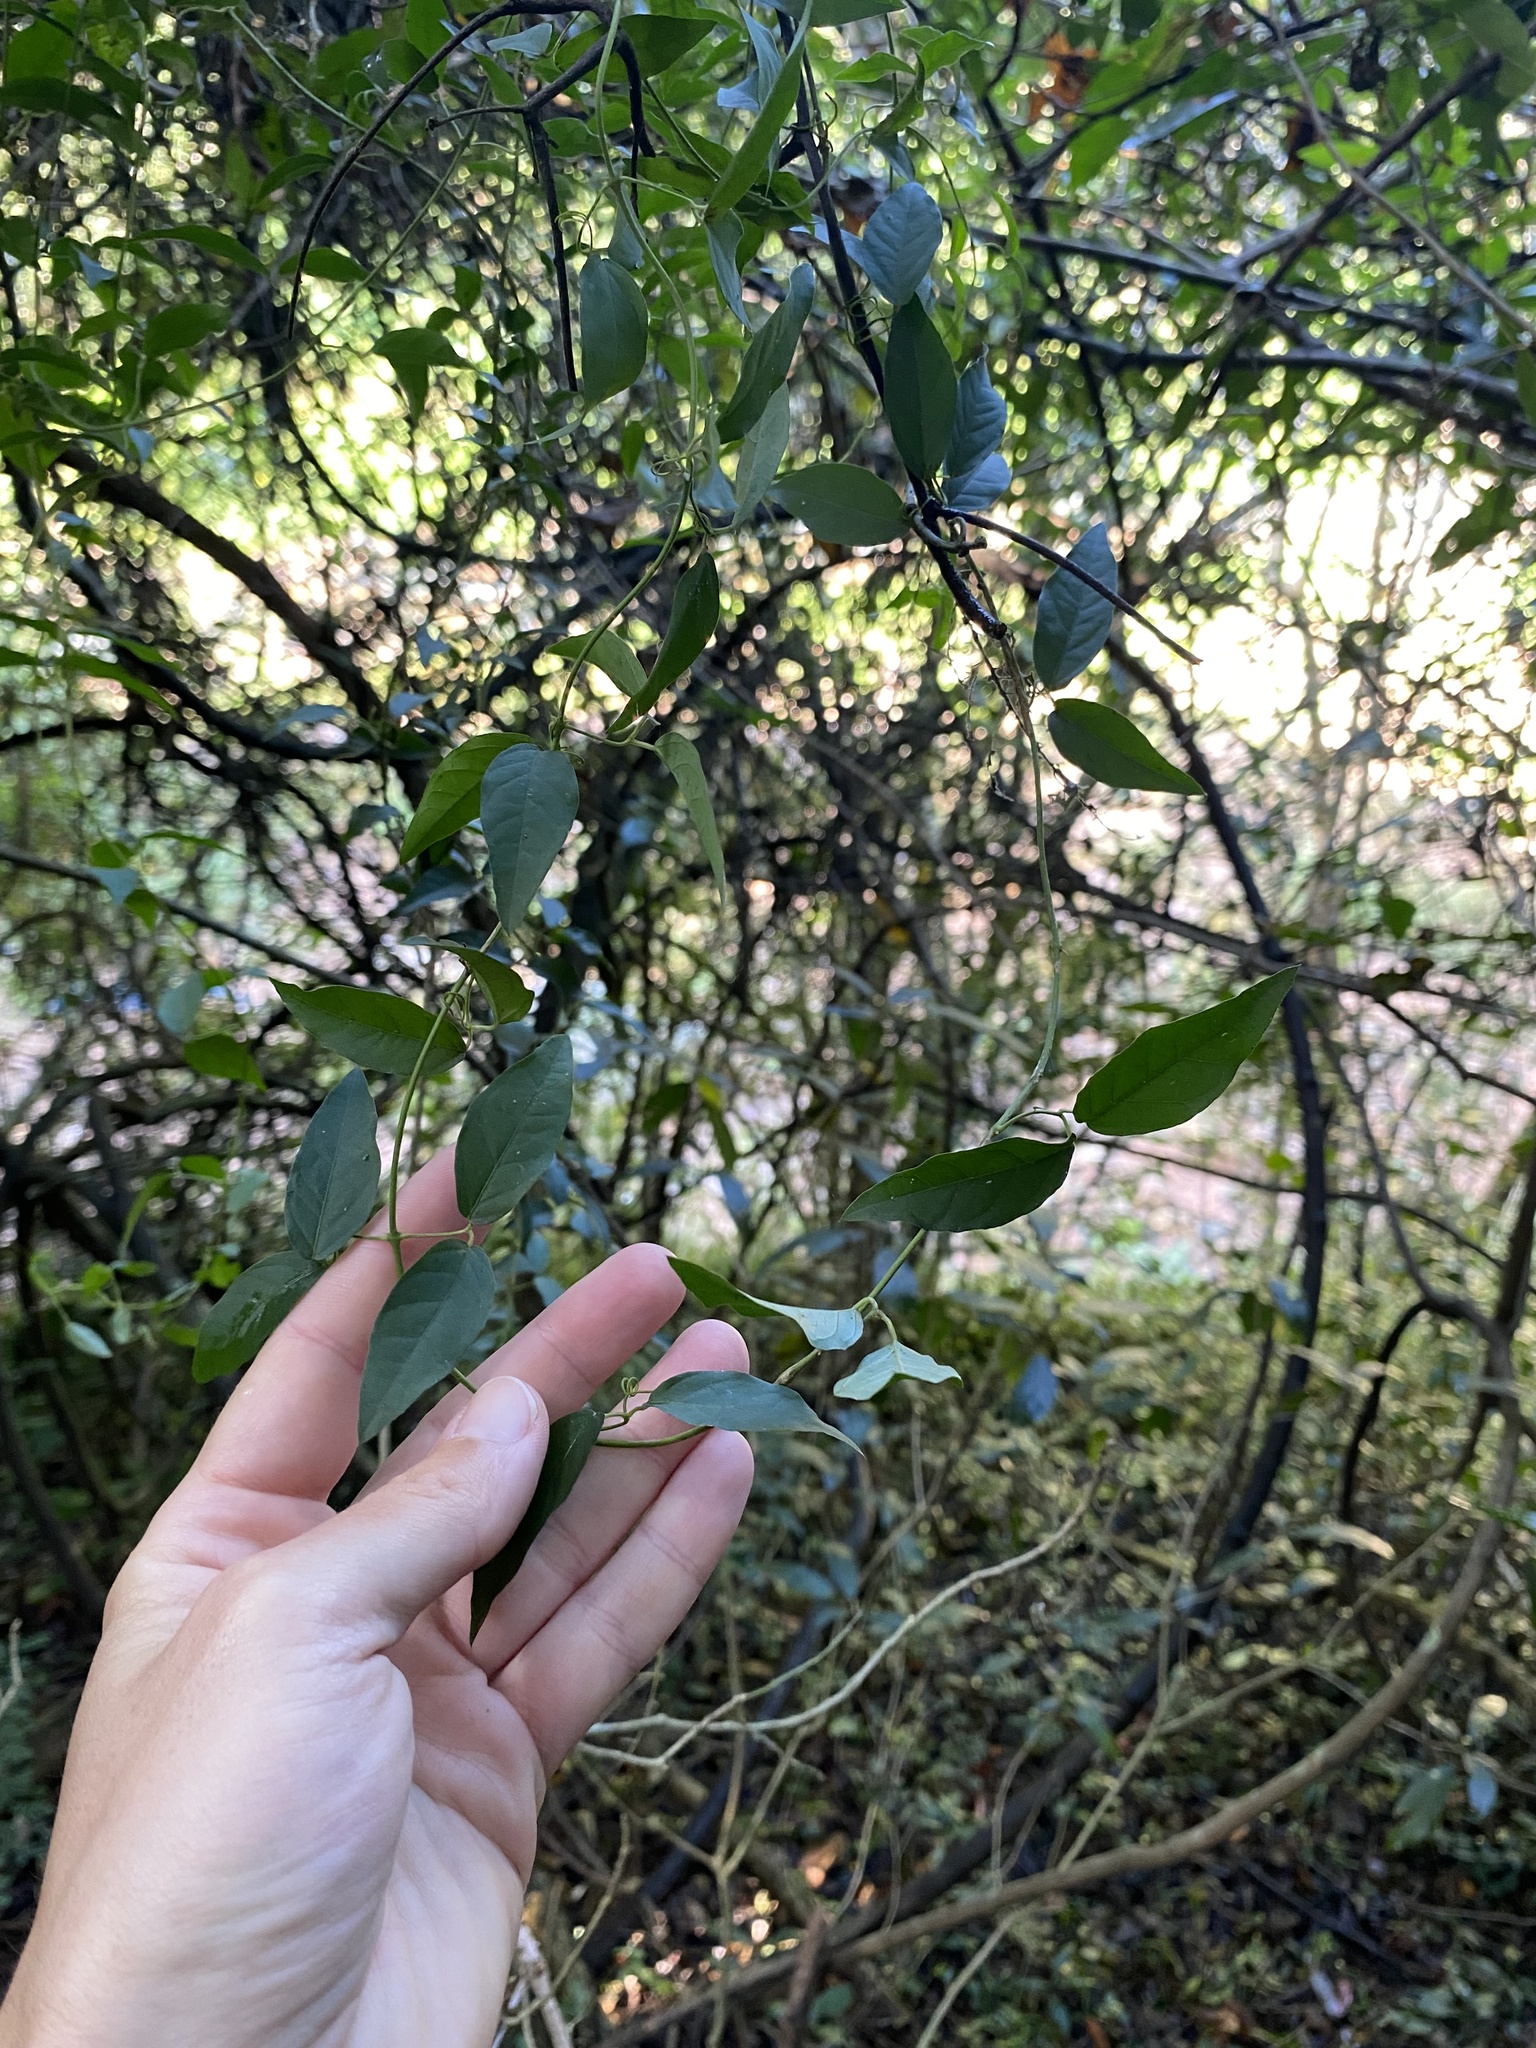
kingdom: Plantae
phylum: Tracheophyta
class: Magnoliopsida
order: Lamiales
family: Bignoniaceae
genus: Dolichandra
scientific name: Dolichandra unguis-cati
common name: Catclaw vine
